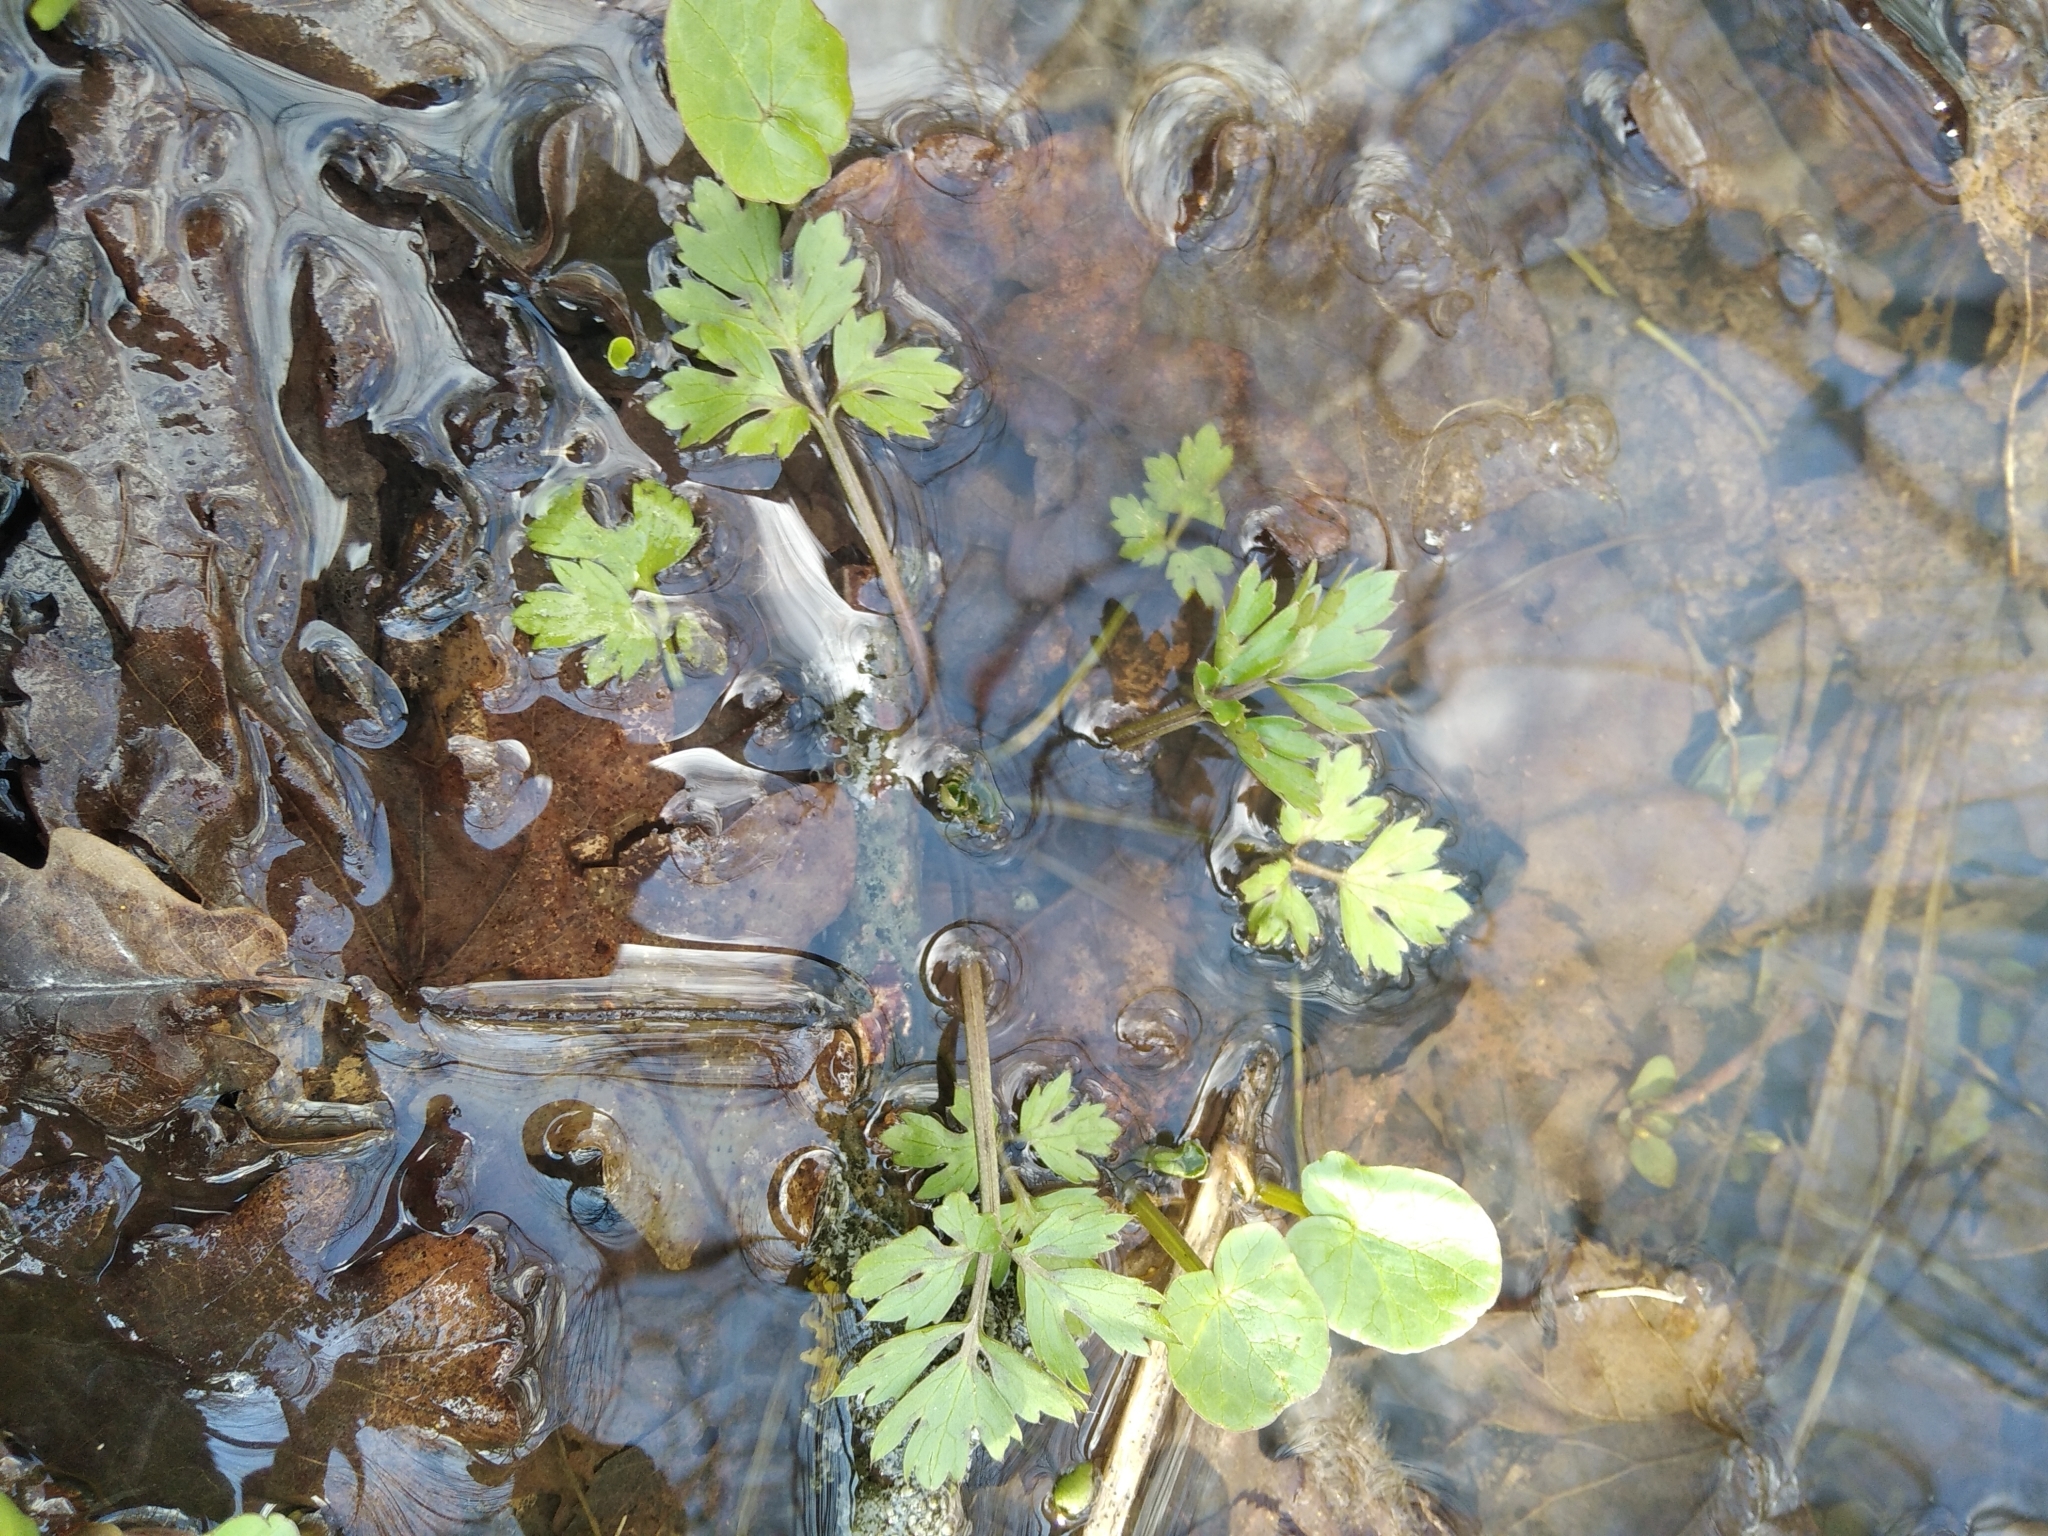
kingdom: Plantae
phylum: Tracheophyta
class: Magnoliopsida
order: Ranunculales
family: Ranunculaceae
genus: Ranunculus
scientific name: Ranunculus repens
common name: Creeping buttercup
